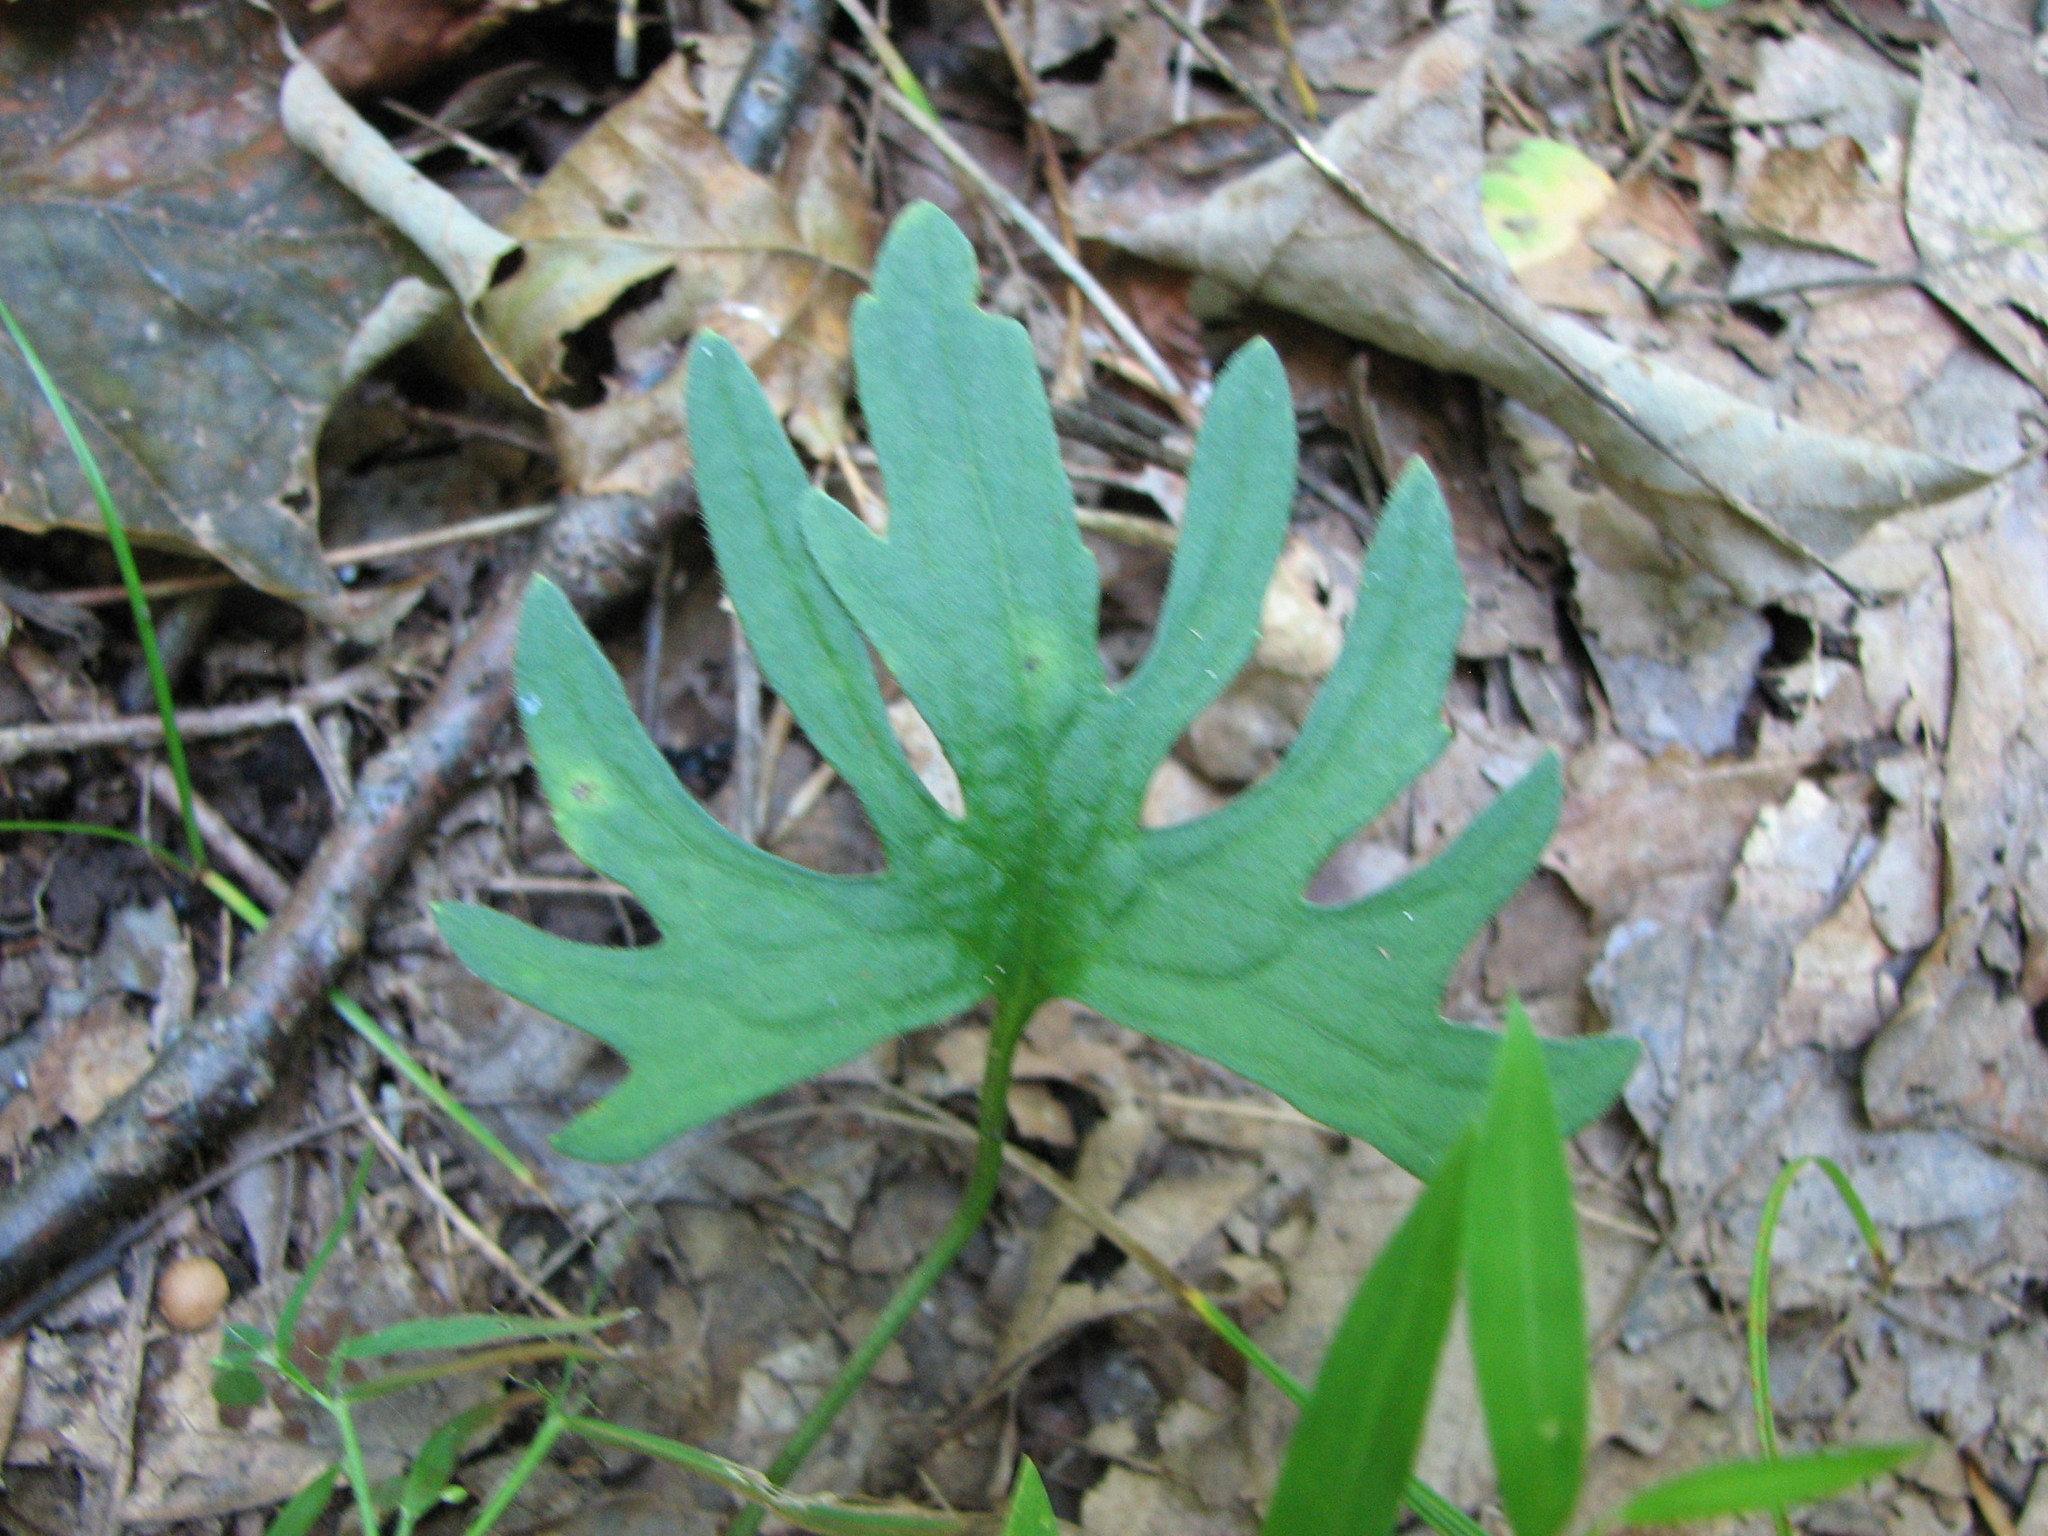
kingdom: Plantae
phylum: Tracheophyta
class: Magnoliopsida
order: Malpighiales
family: Violaceae
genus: Viola
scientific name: Viola subsinuata
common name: Wood violet
